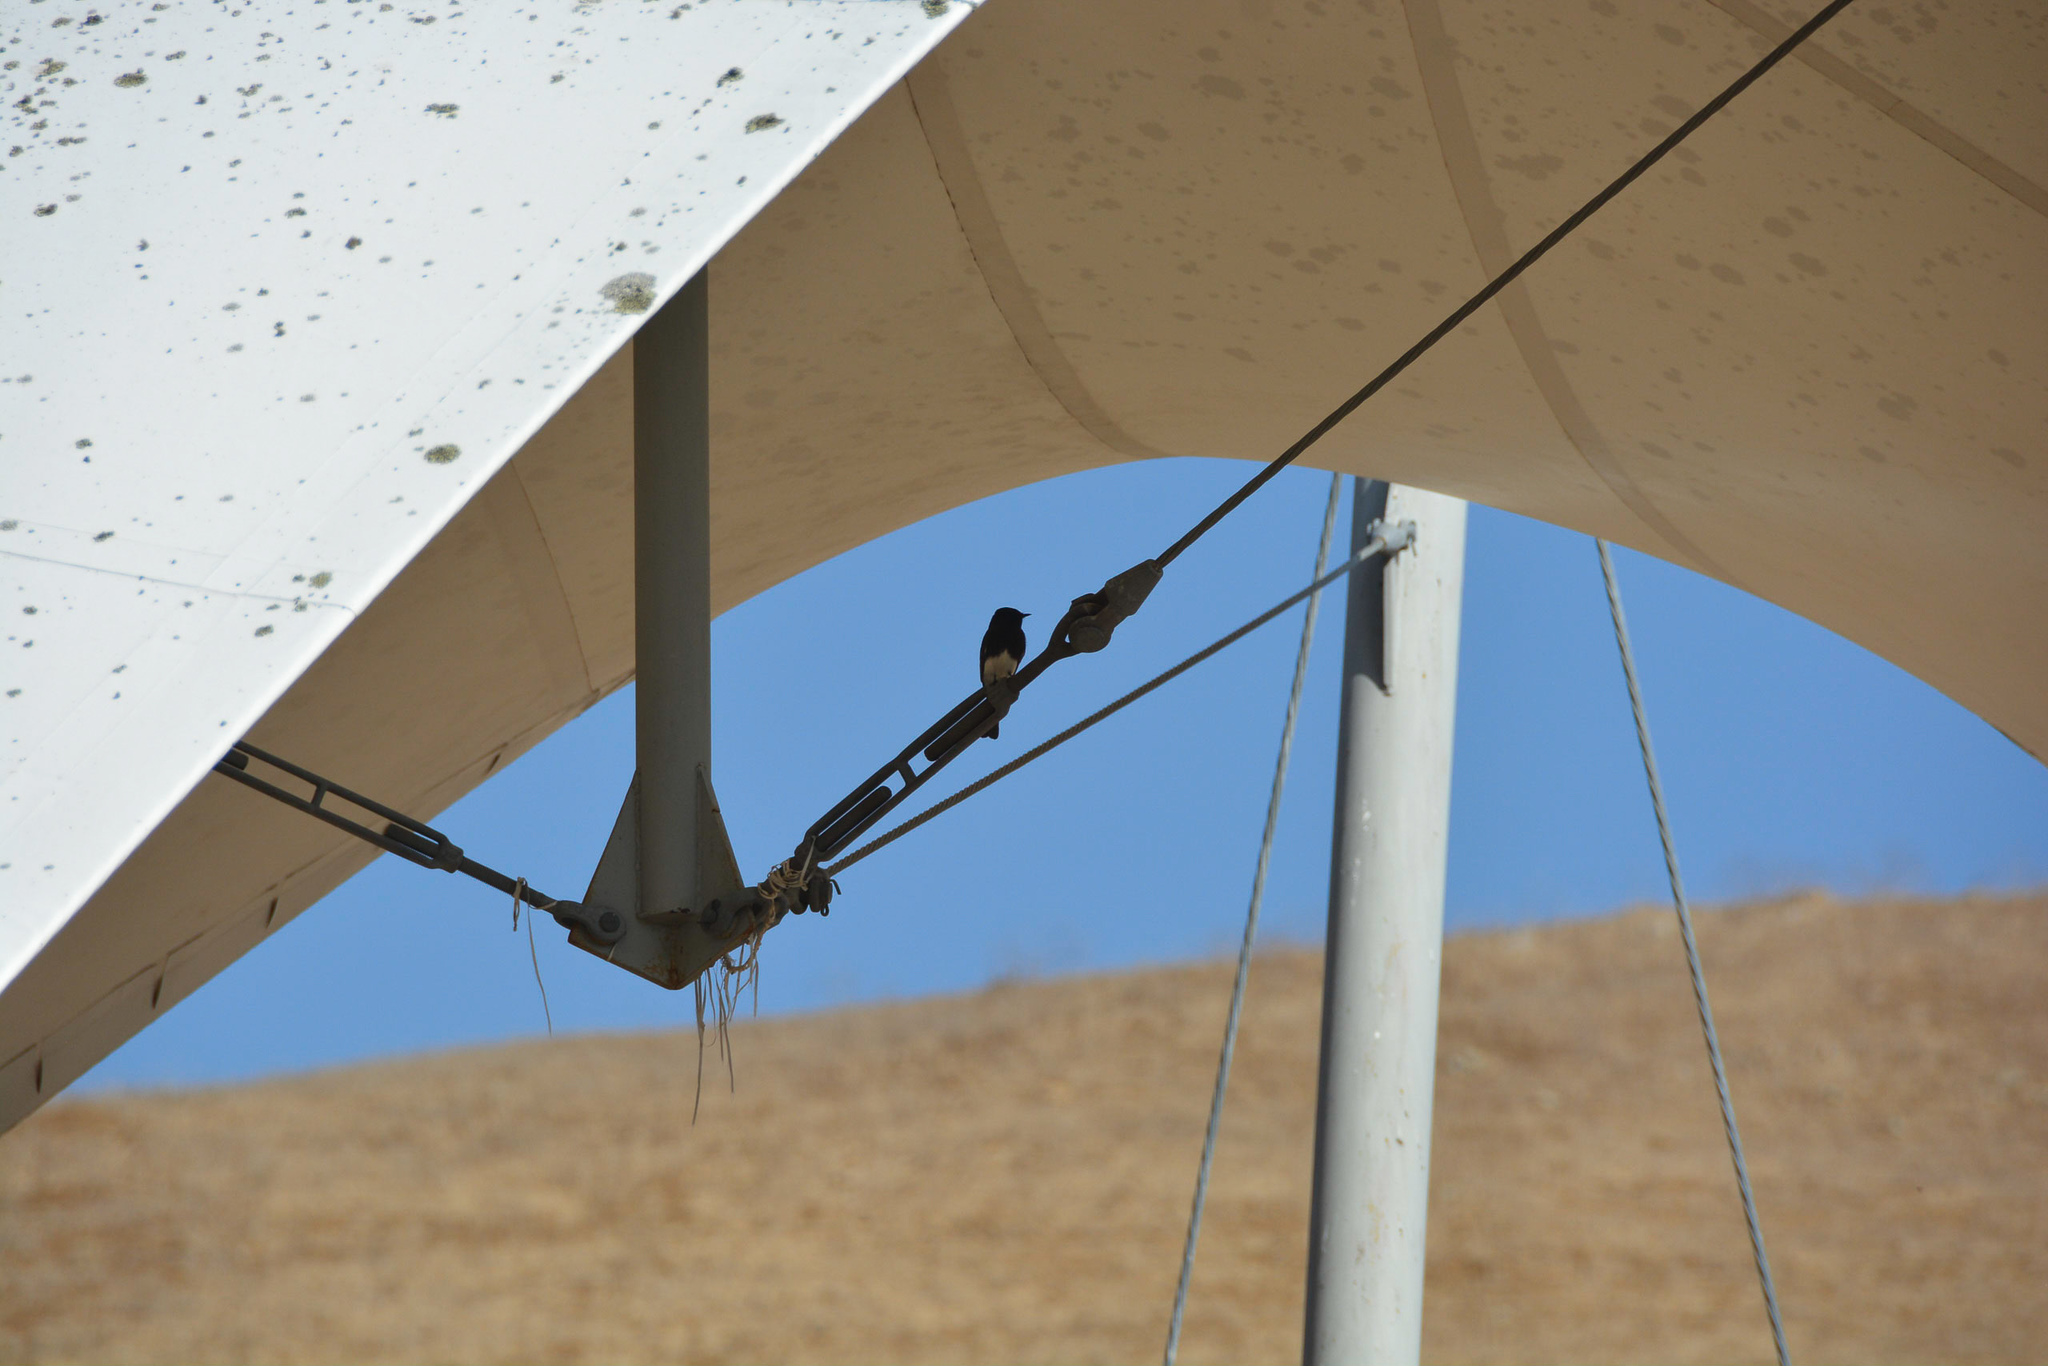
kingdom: Animalia
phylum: Chordata
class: Aves
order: Passeriformes
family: Tyrannidae
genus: Sayornis
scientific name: Sayornis nigricans
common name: Black phoebe
